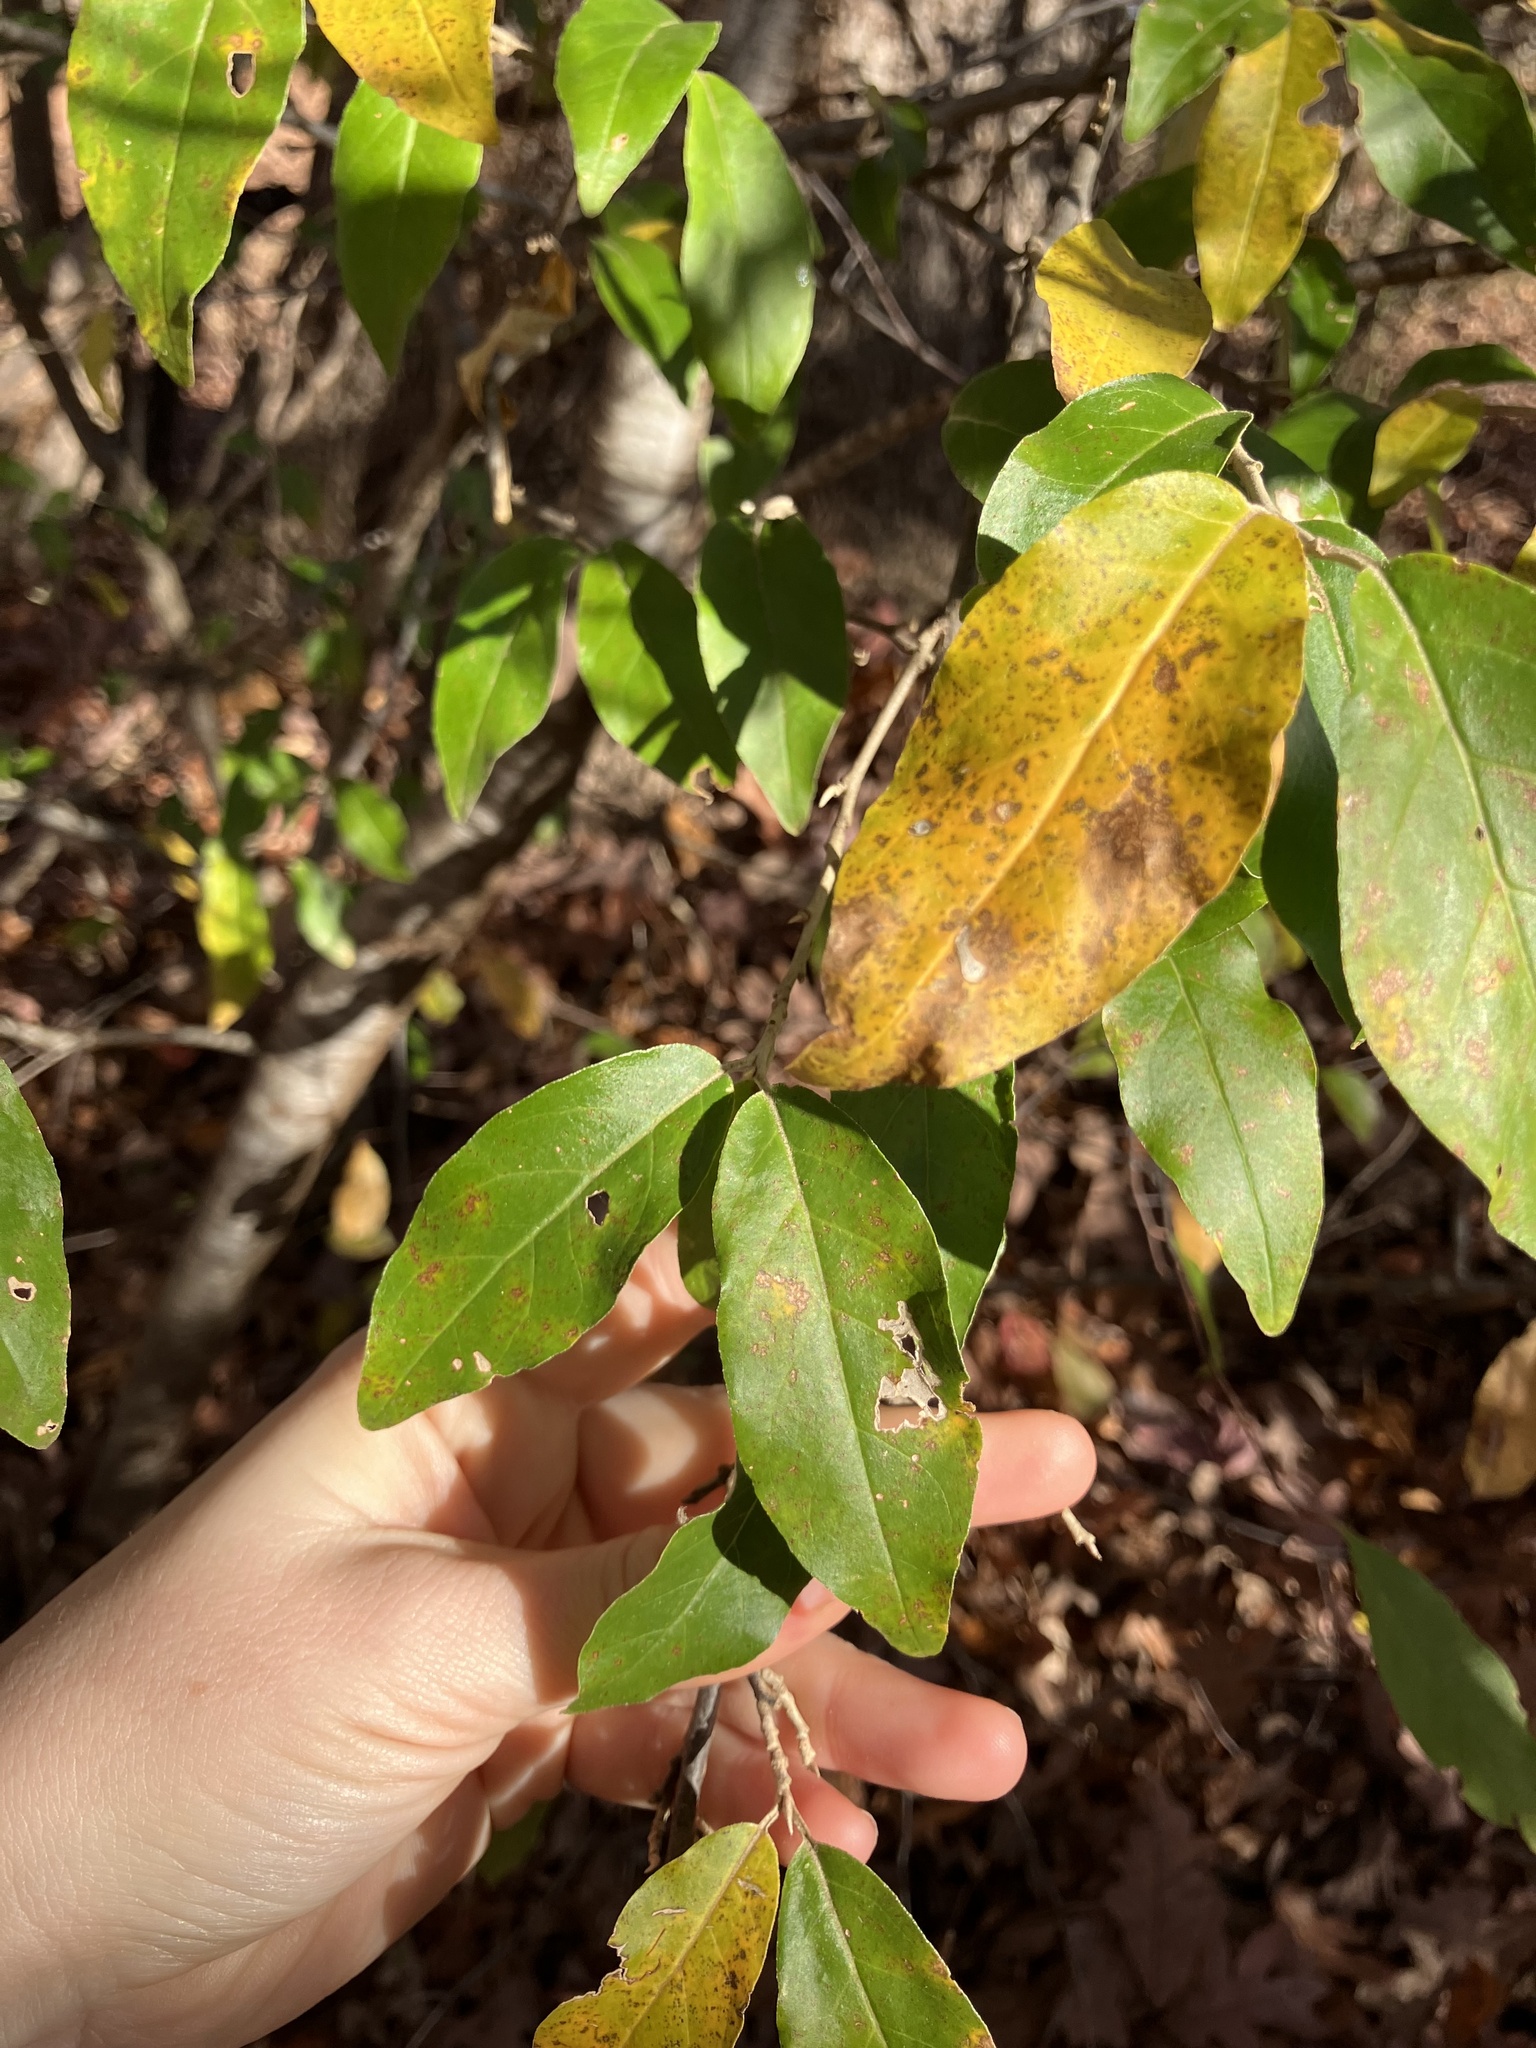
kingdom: Plantae
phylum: Tracheophyta
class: Magnoliopsida
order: Rosales
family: Rosaceae
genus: Prunus
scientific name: Prunus serotina
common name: Black cherry
